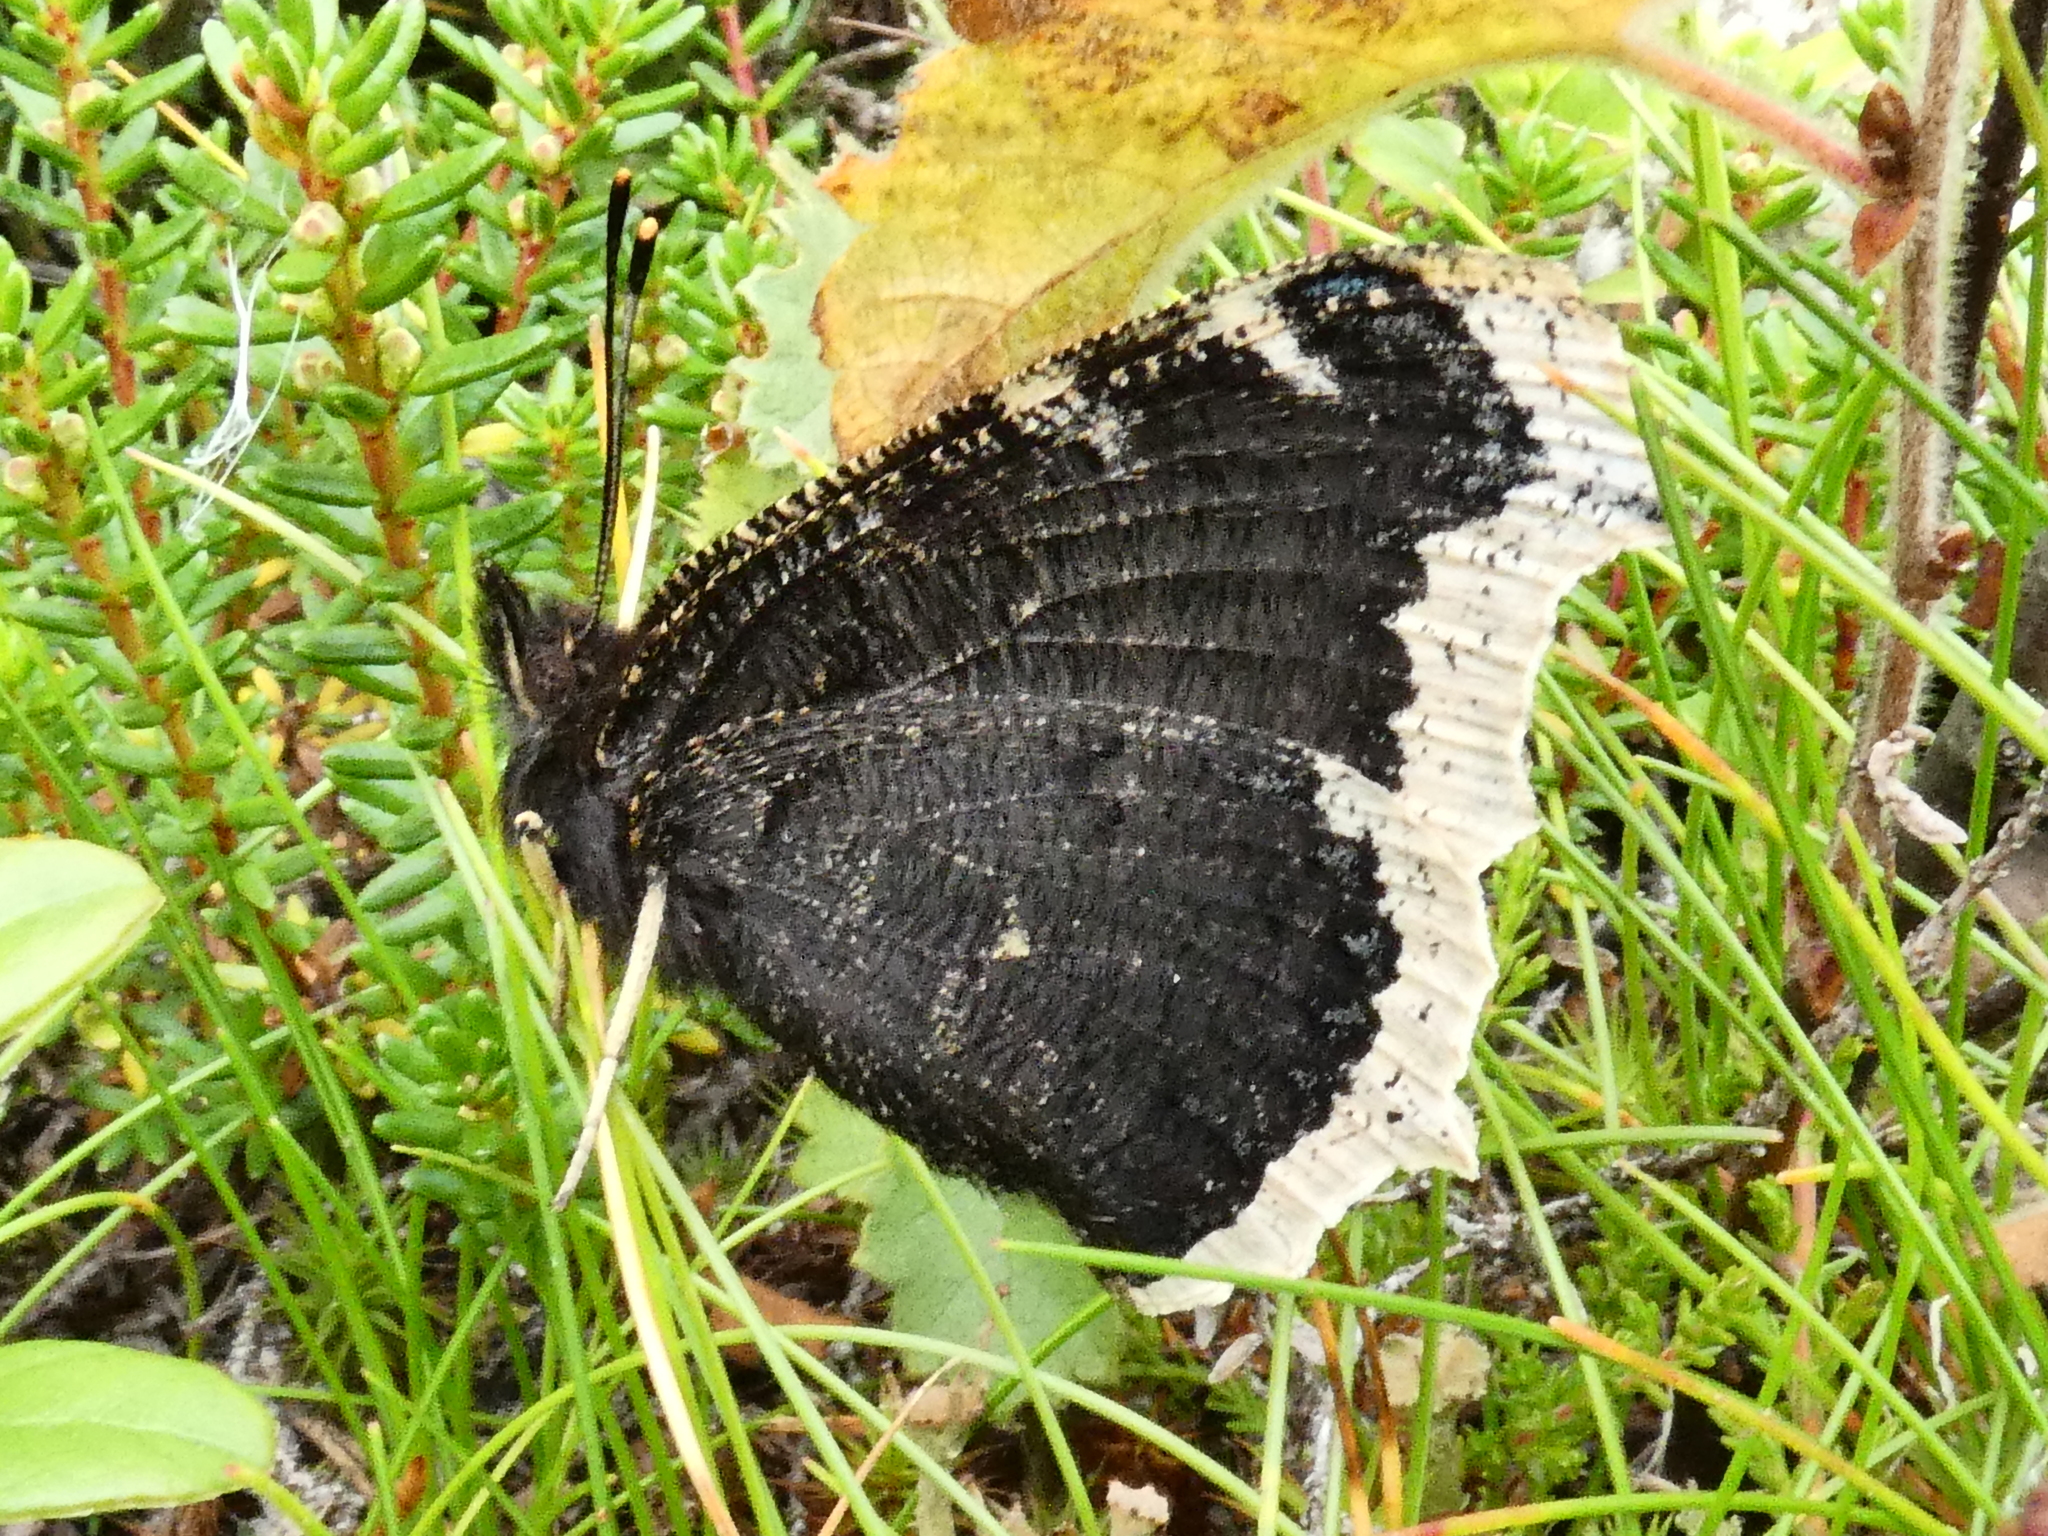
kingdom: Animalia
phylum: Arthropoda
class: Insecta
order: Lepidoptera
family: Nymphalidae
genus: Nymphalis
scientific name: Nymphalis antiopa
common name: Camberwell beauty
